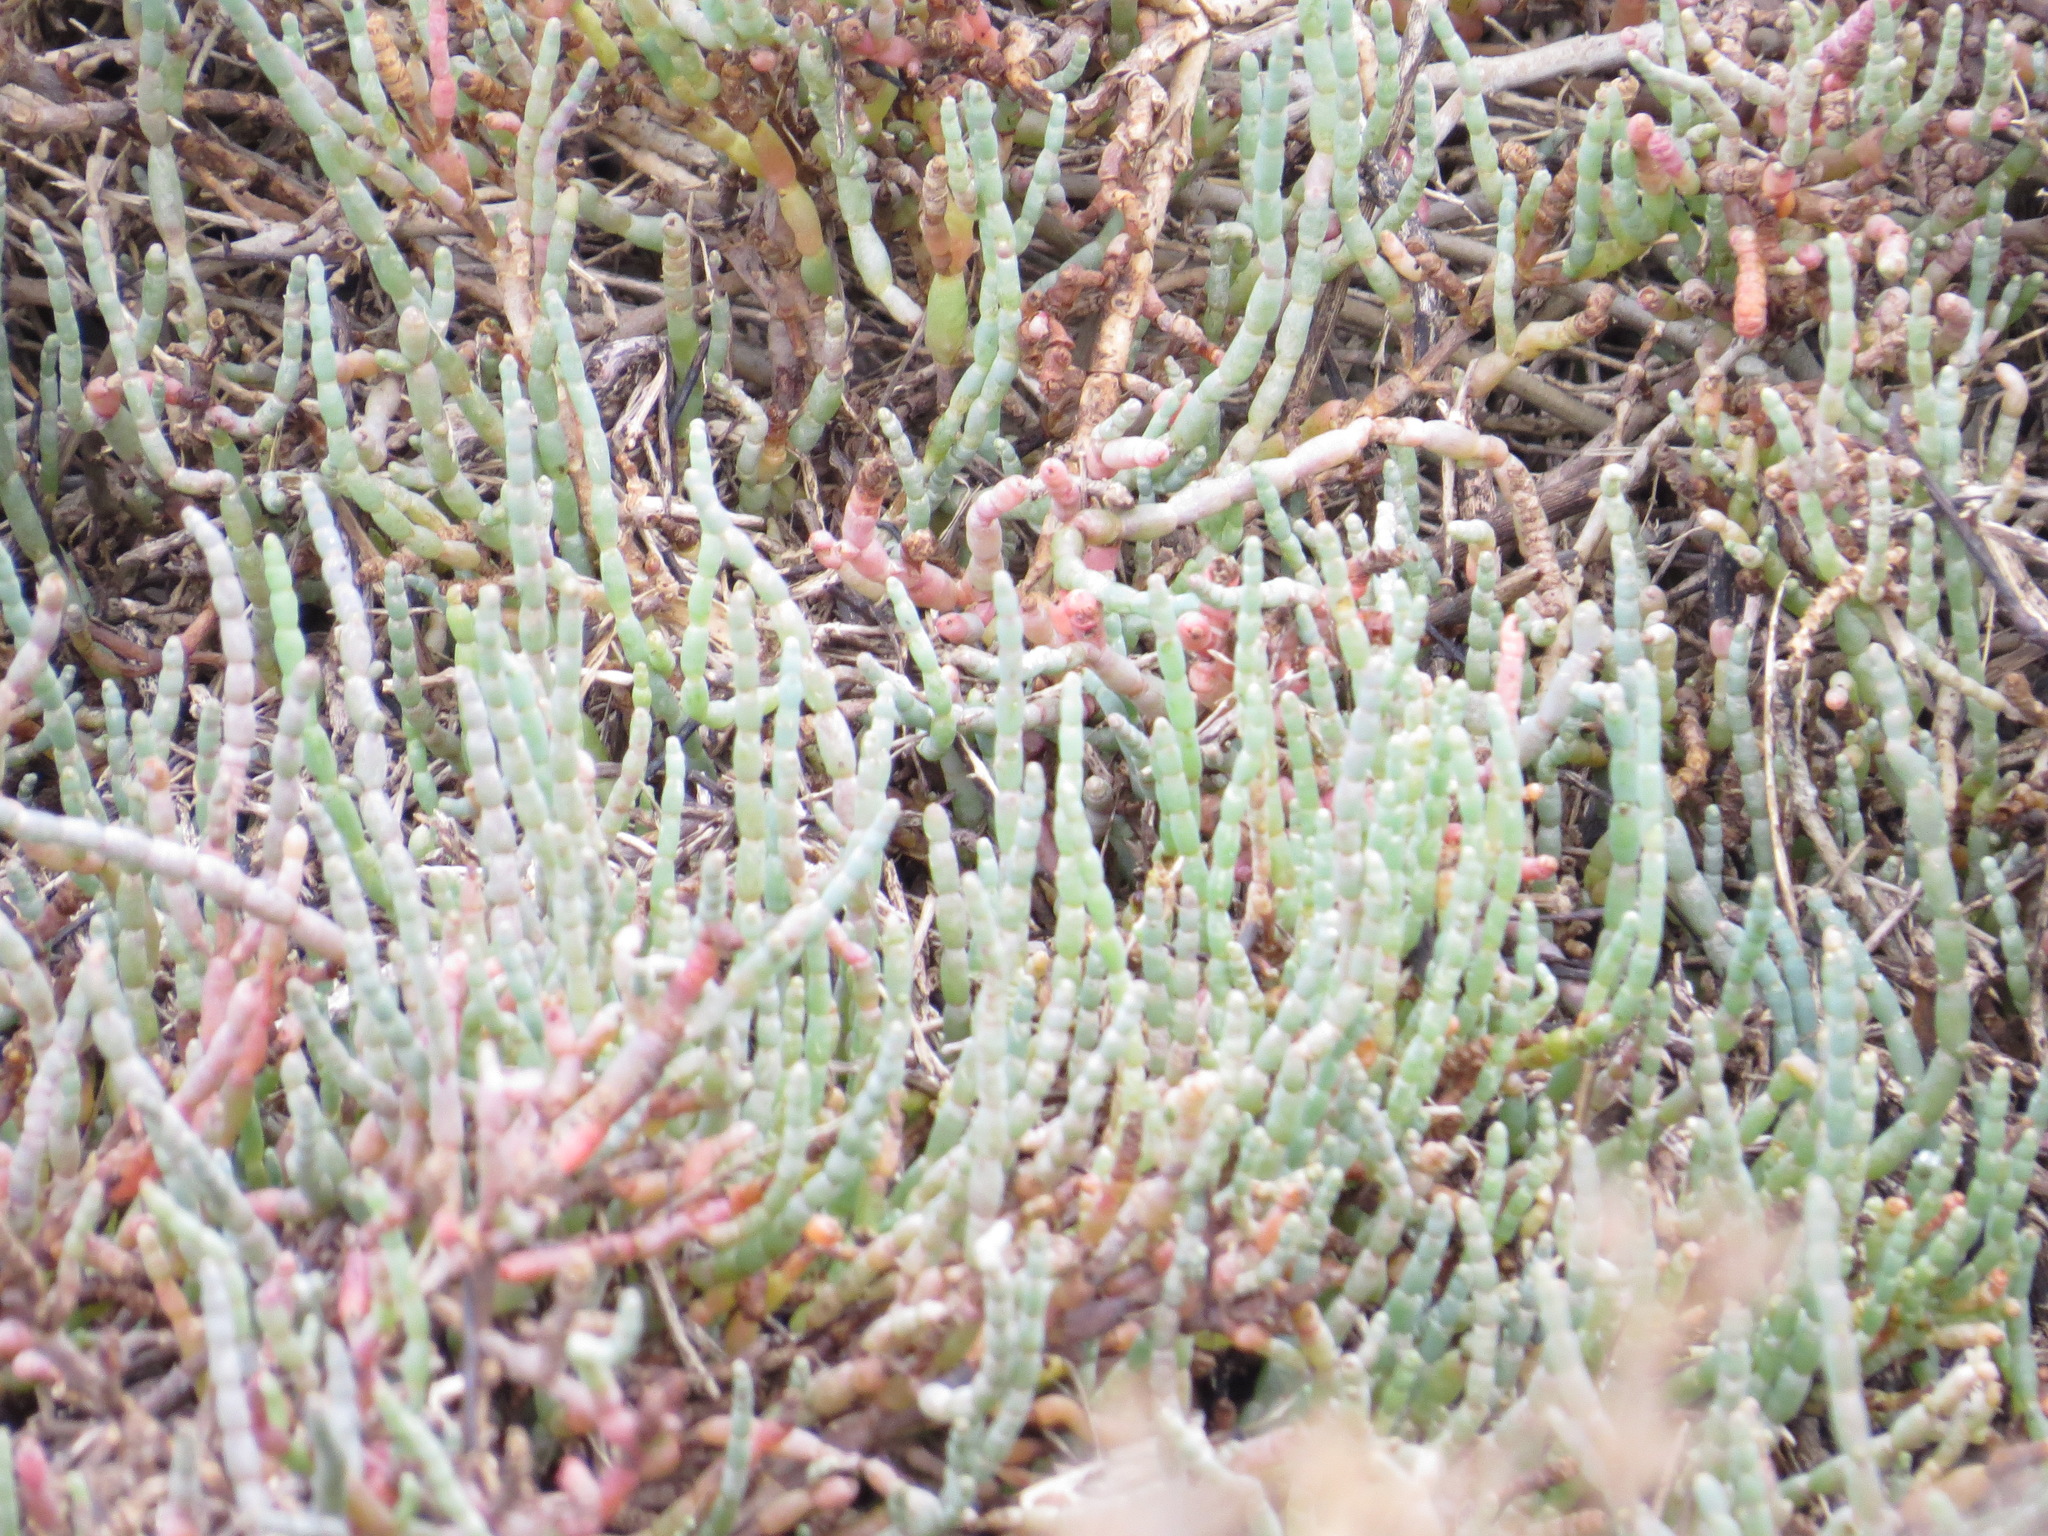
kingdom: Plantae
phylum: Tracheophyta
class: Magnoliopsida
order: Caryophyllales
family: Amaranthaceae
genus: Salicornia
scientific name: Salicornia pacifica
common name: Pacific glasswort
